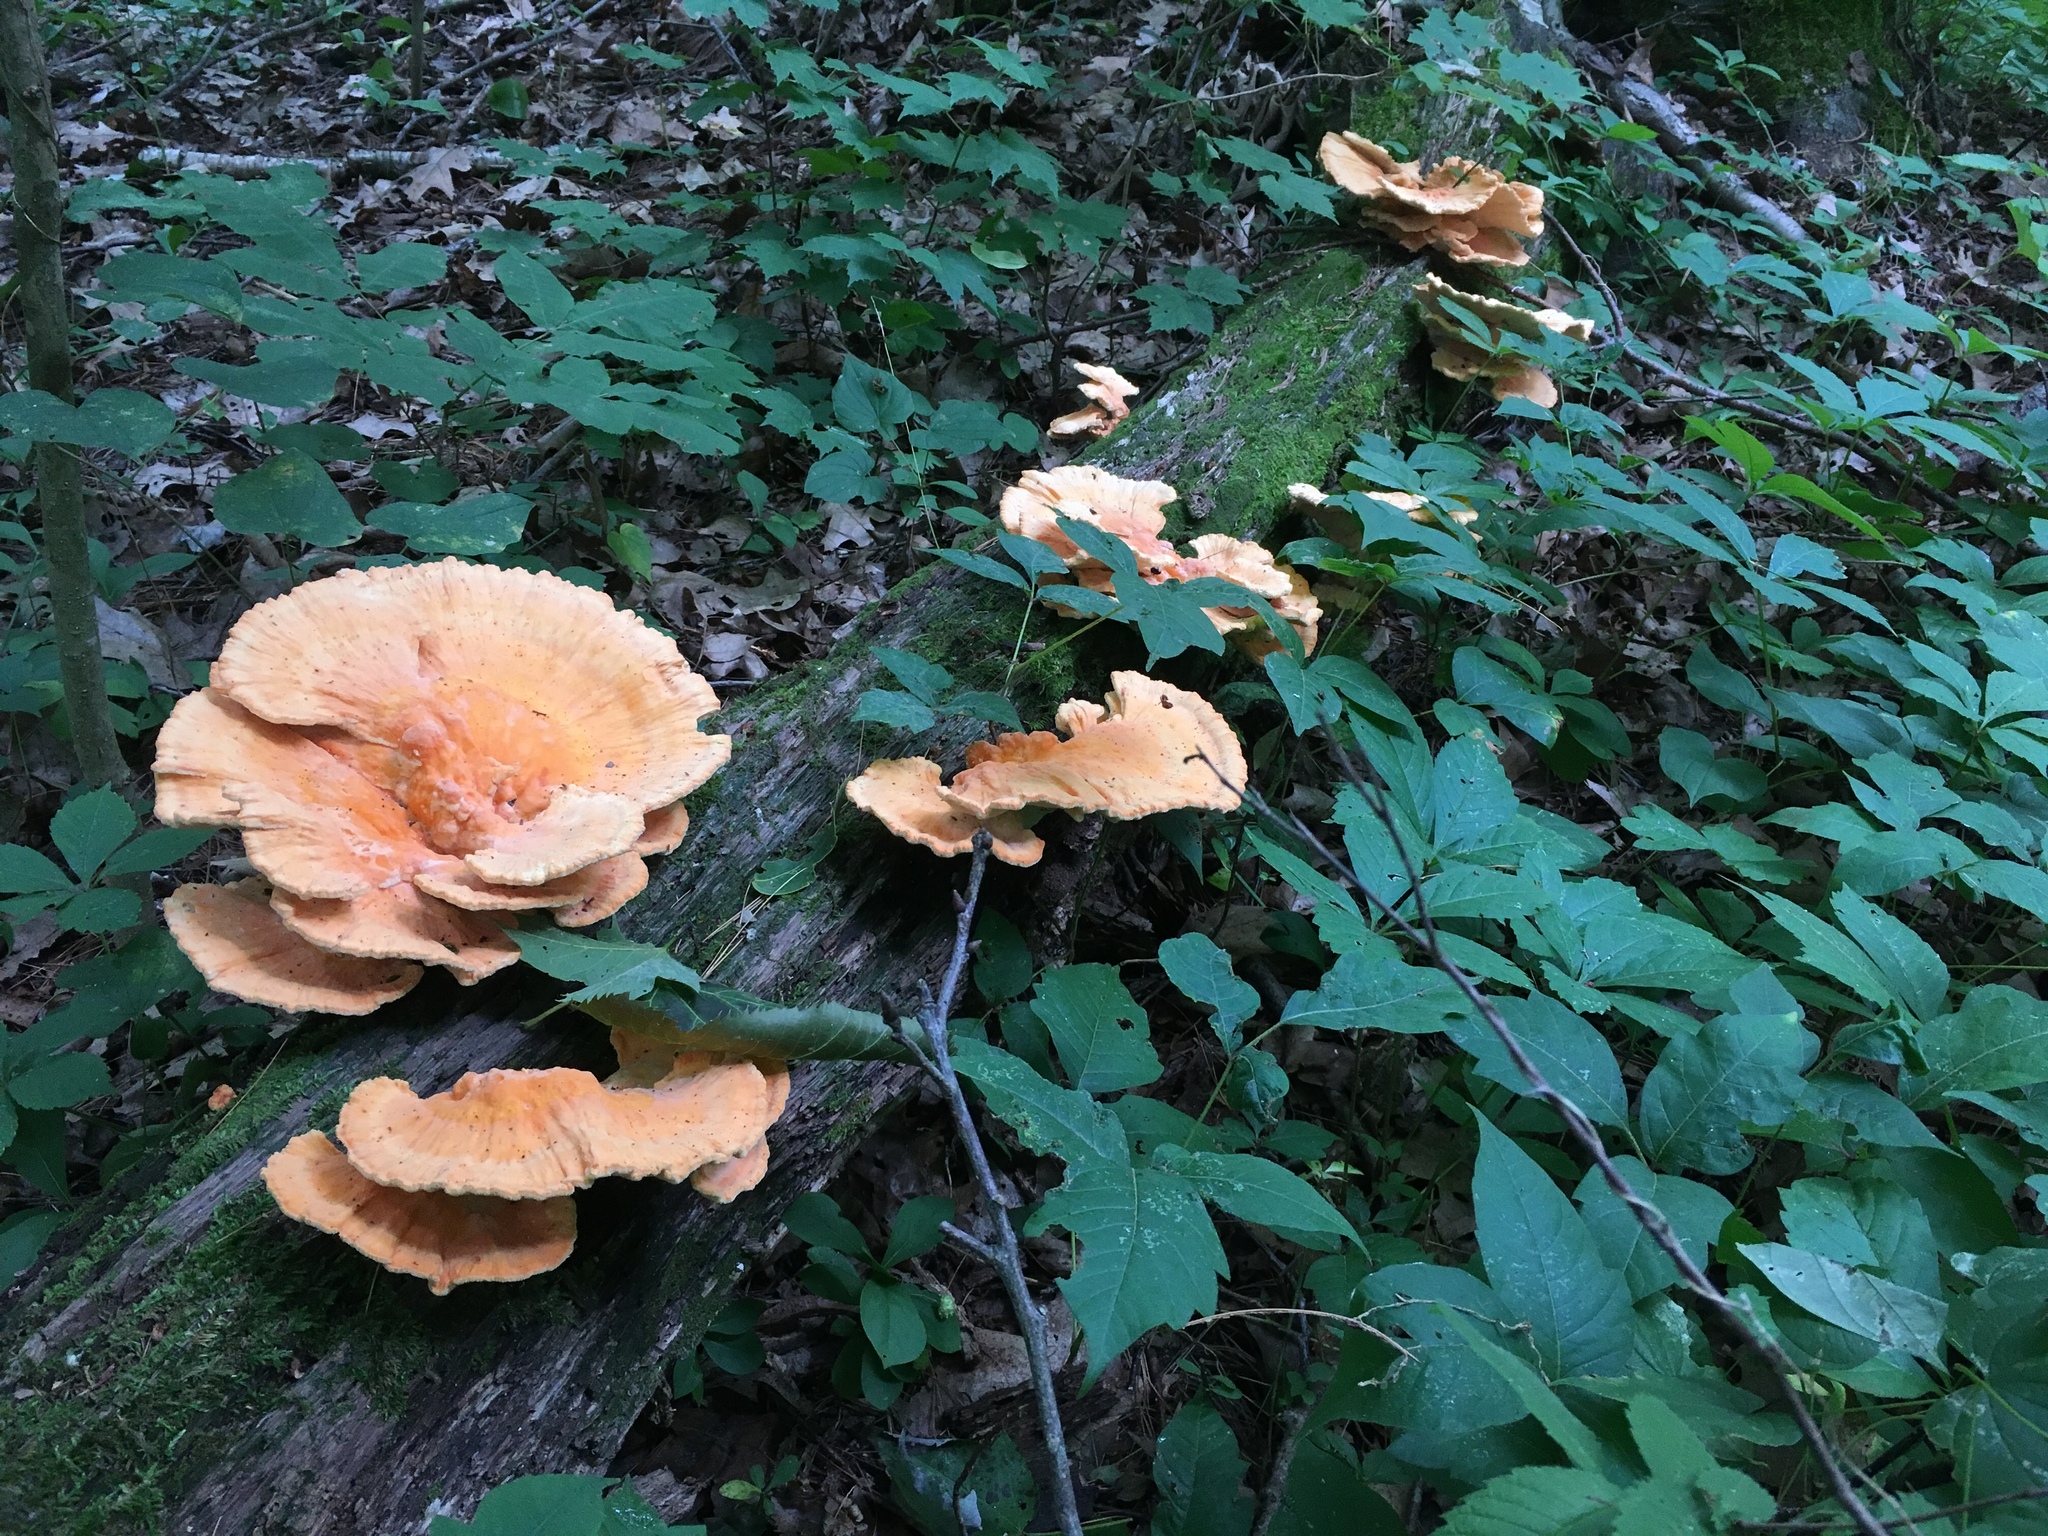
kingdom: Fungi
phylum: Basidiomycota
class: Agaricomycetes
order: Polyporales
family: Laetiporaceae
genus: Laetiporus
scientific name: Laetiporus sulphureus
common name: Chicken of the woods
